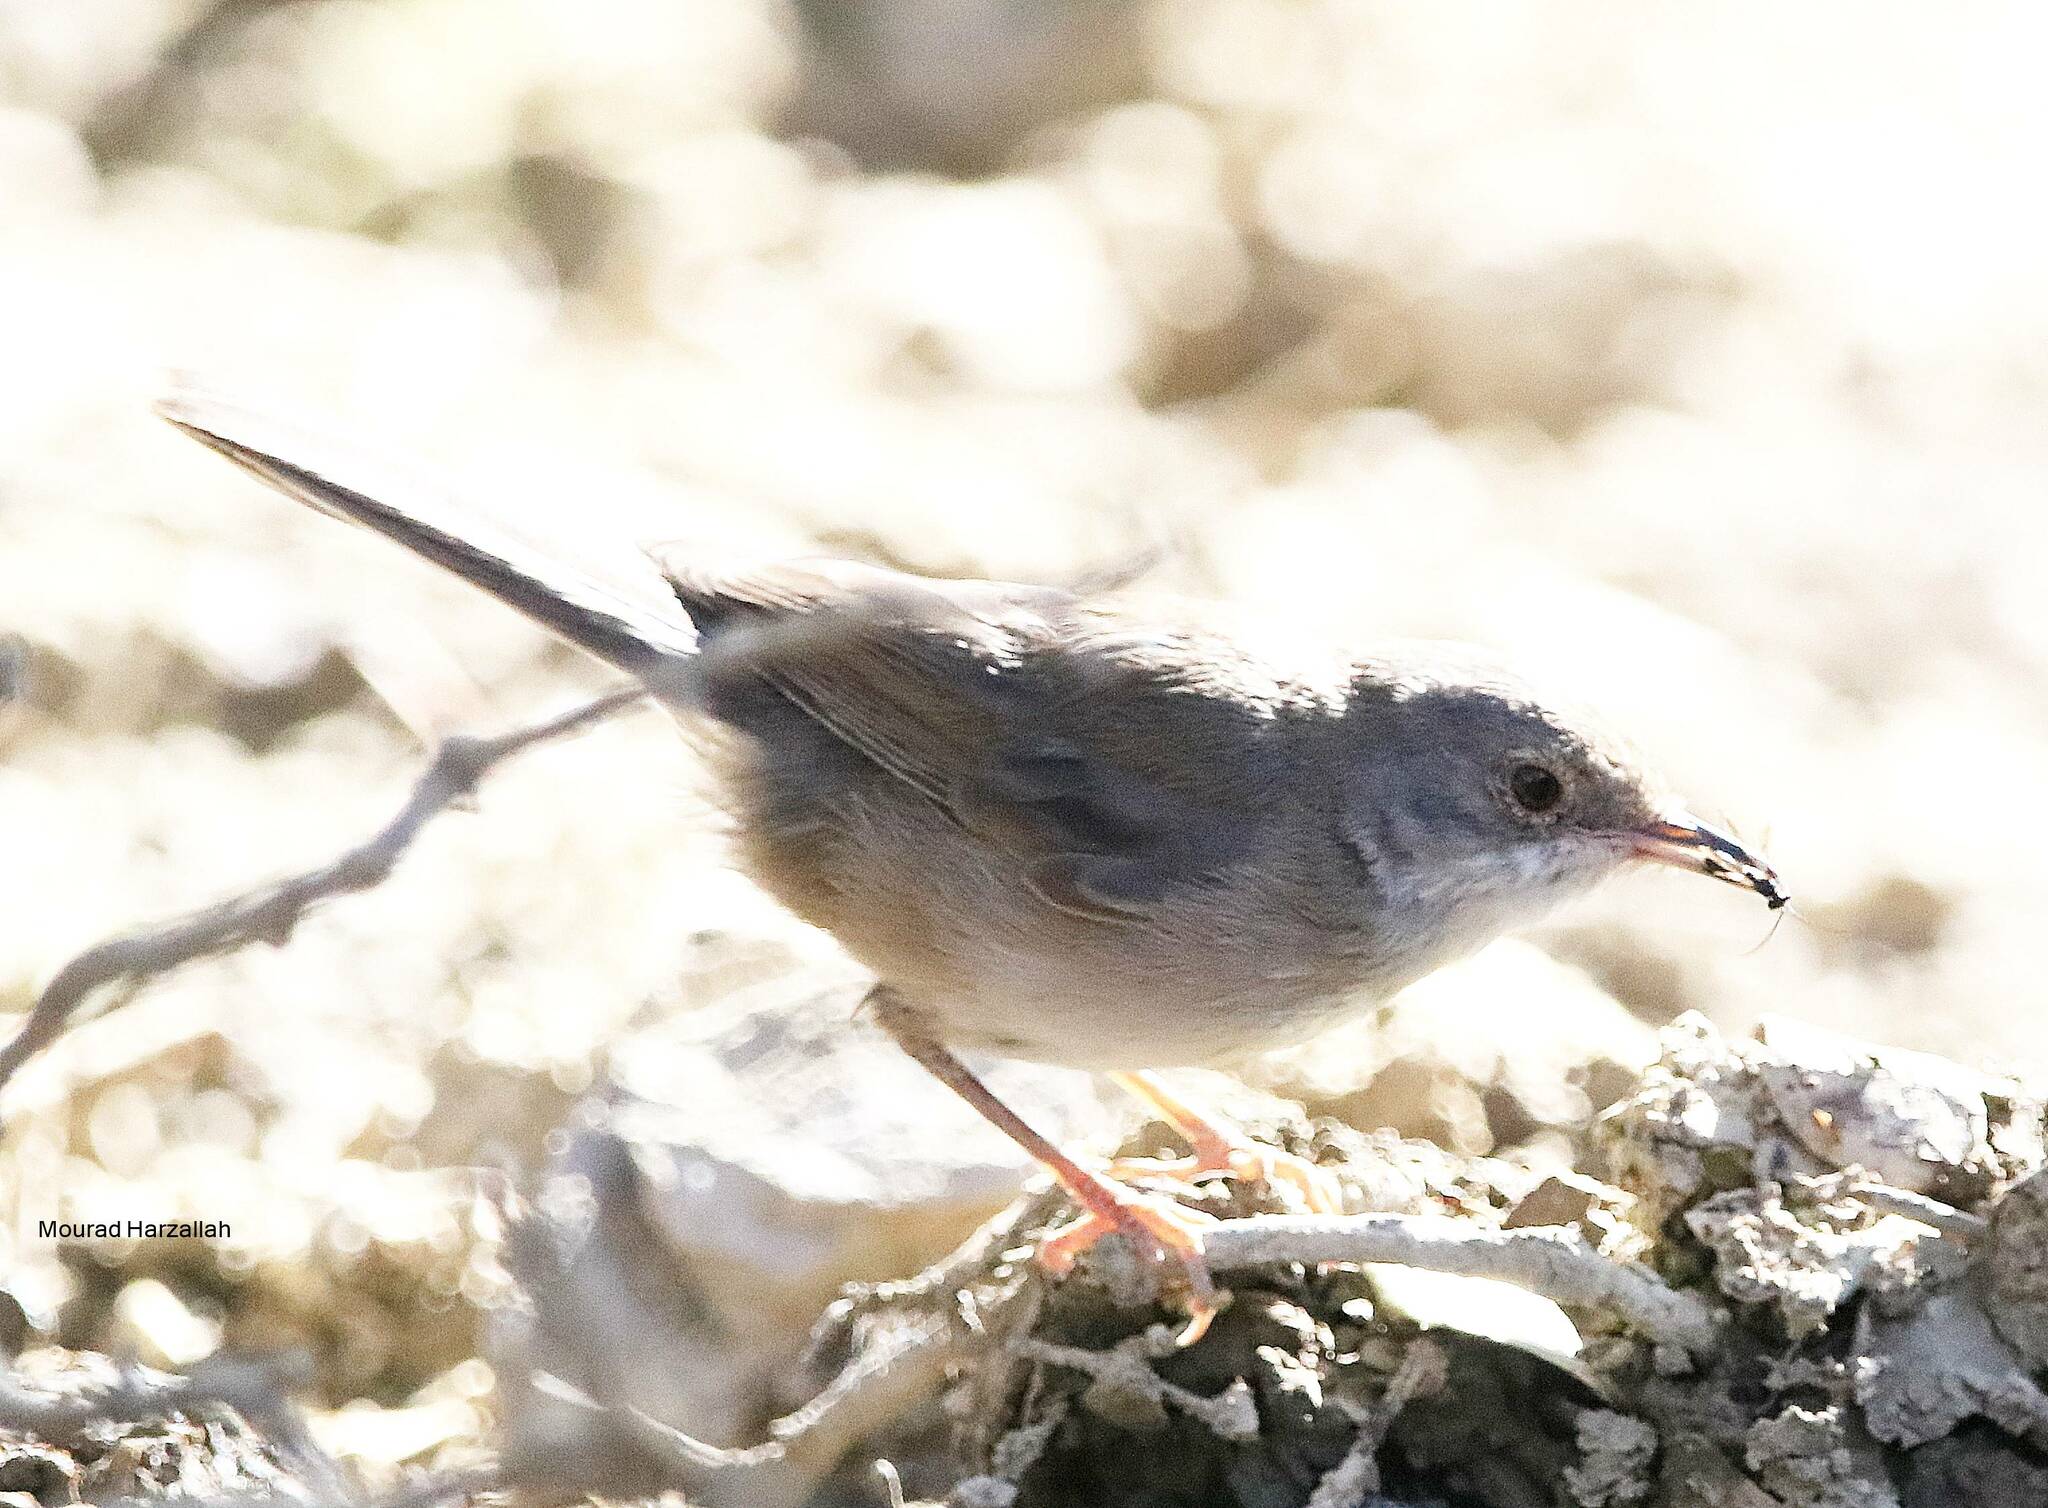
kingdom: Animalia
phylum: Chordata
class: Aves
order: Passeriformes
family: Sylviidae
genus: Curruca
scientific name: Curruca melanocephala
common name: Sardinian warbler
